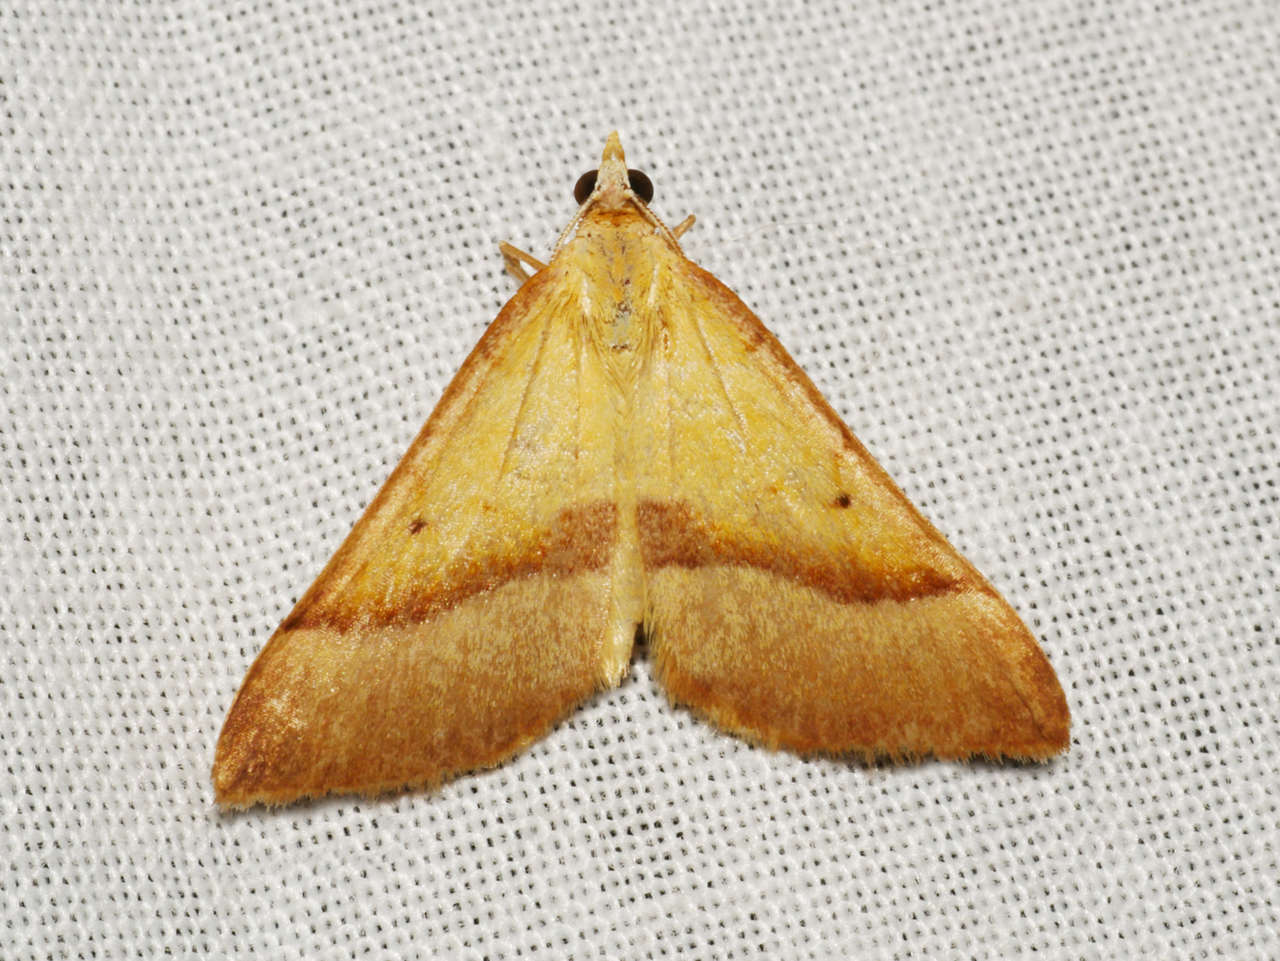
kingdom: Animalia
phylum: Arthropoda
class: Insecta
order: Lepidoptera
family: Geometridae
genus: Anachloris
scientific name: Anachloris subochraria
